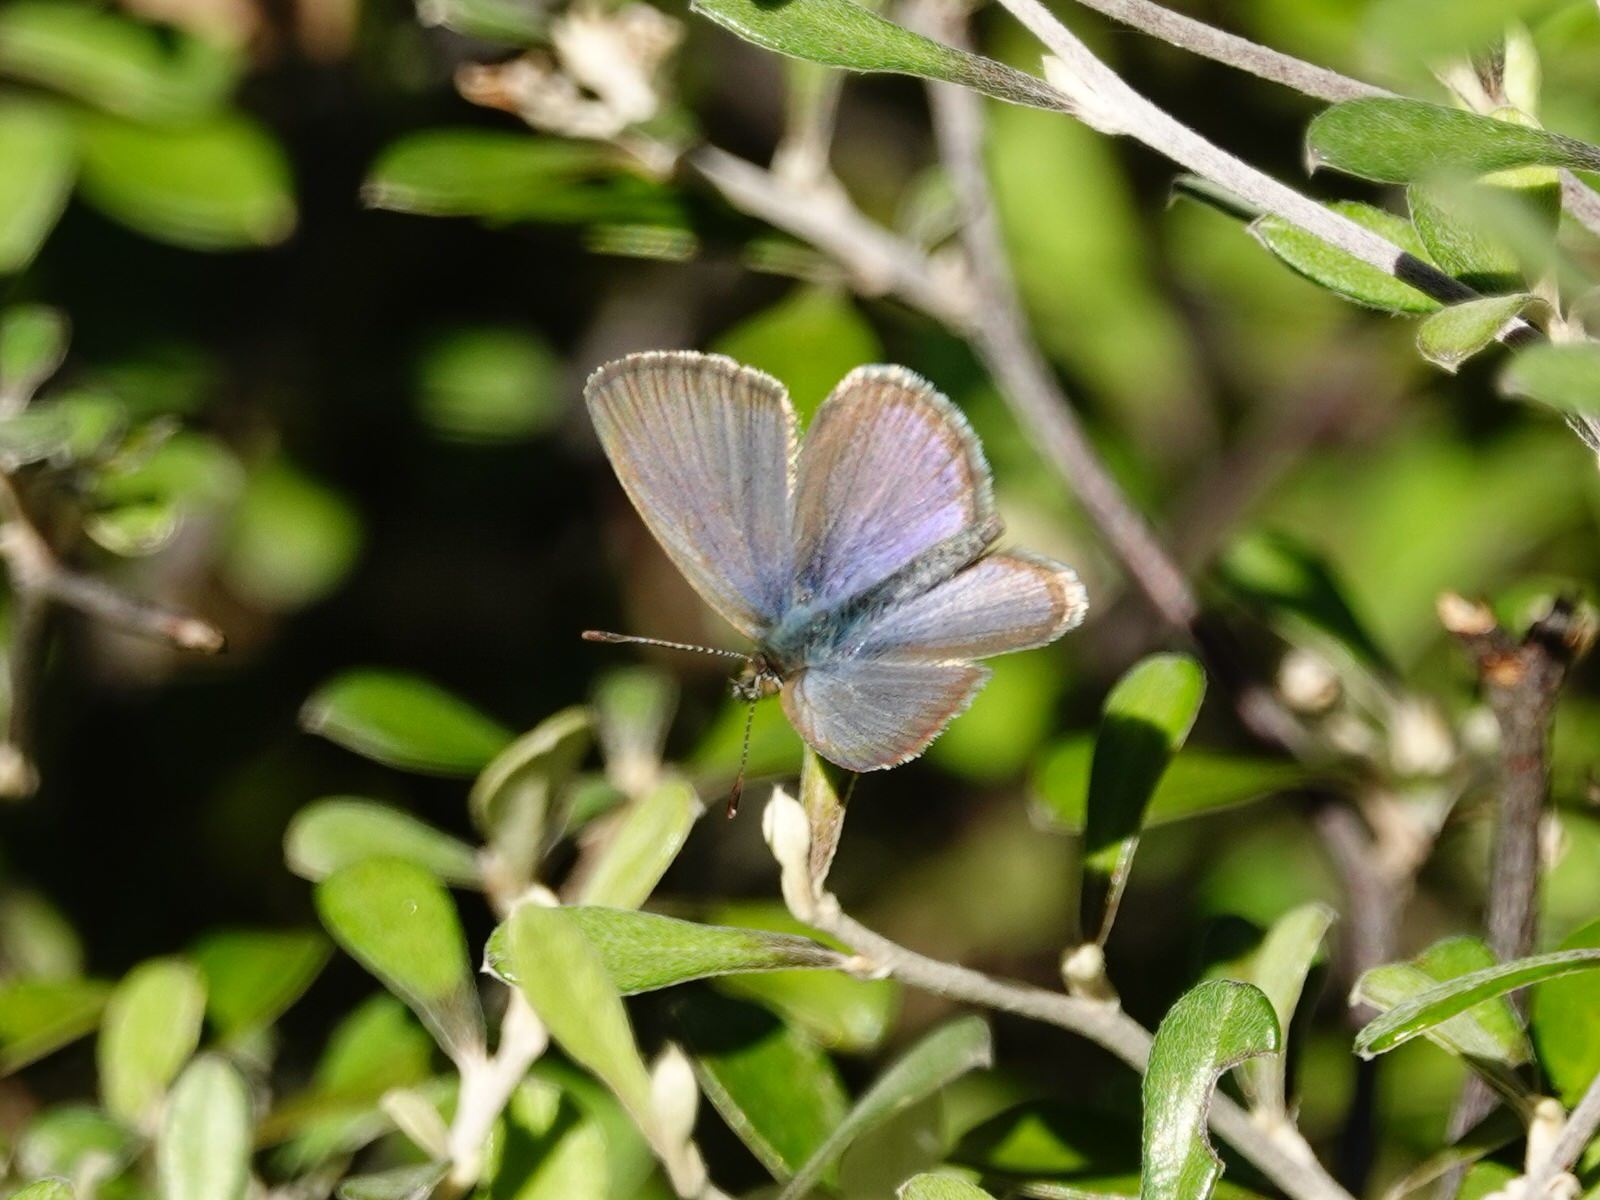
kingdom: Animalia
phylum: Arthropoda
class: Insecta
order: Lepidoptera
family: Lycaenidae
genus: Zizina
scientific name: Zizina labradus
